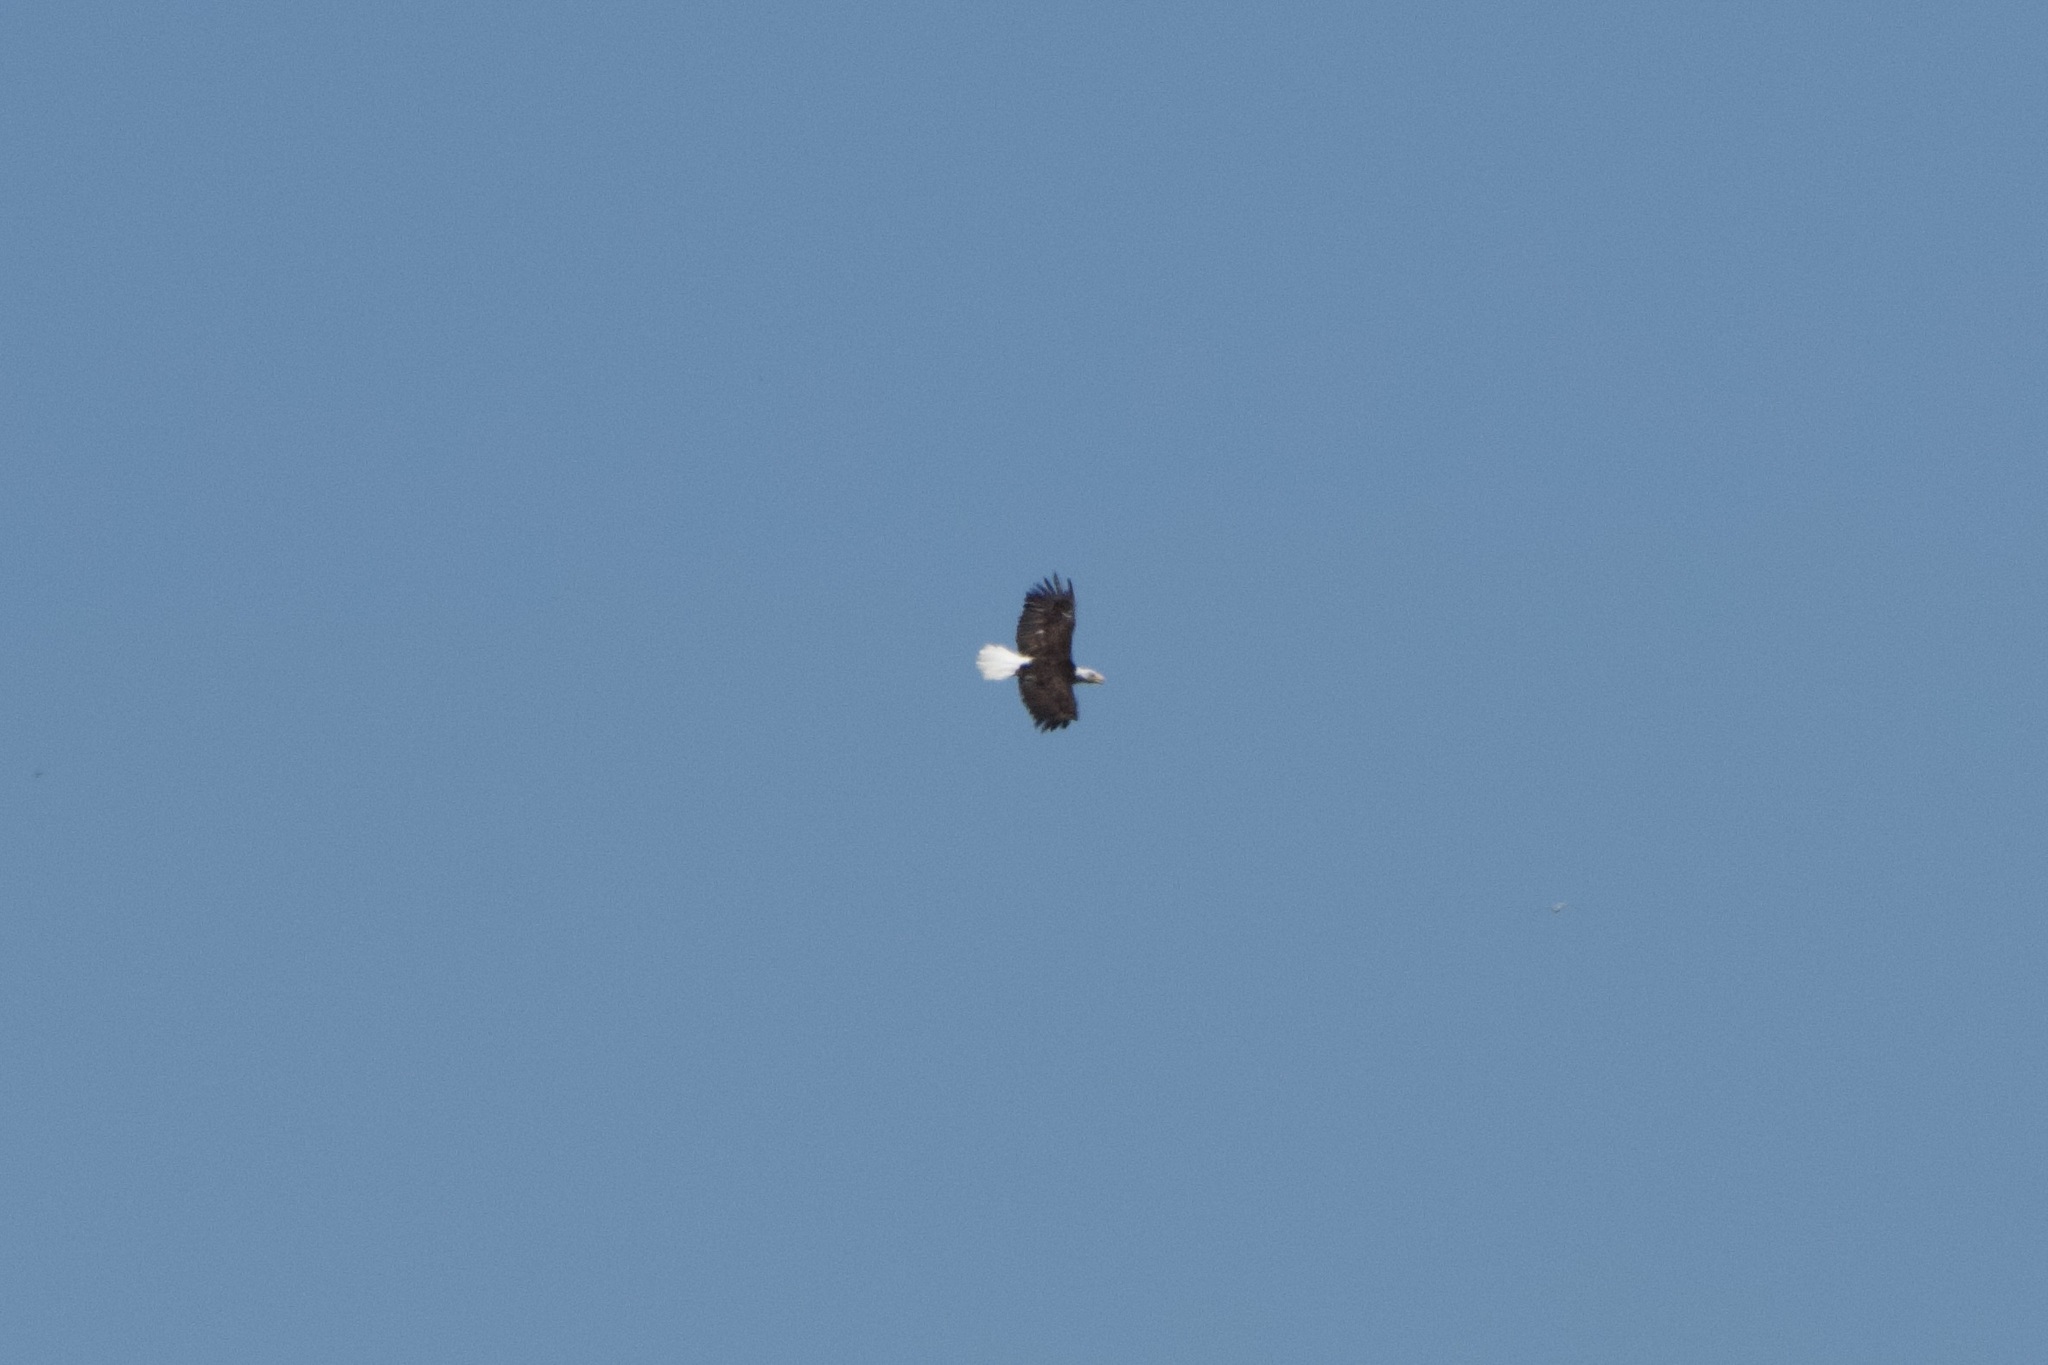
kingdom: Animalia
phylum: Chordata
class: Aves
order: Accipitriformes
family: Accipitridae
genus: Haliaeetus
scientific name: Haliaeetus leucocephalus
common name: Bald eagle
